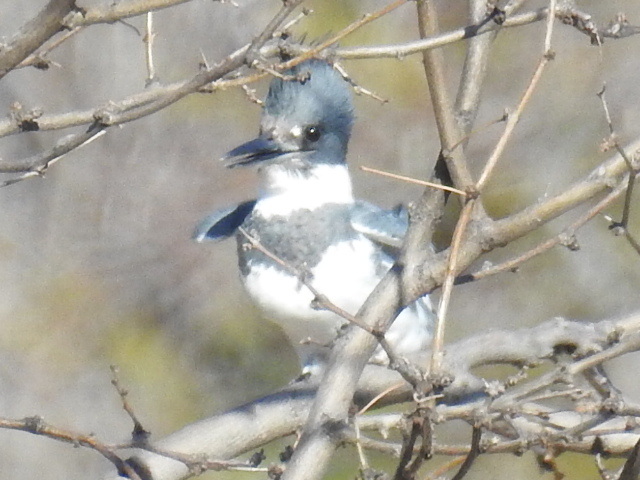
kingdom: Animalia
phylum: Chordata
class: Aves
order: Coraciiformes
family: Alcedinidae
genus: Megaceryle
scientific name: Megaceryle alcyon
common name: Belted kingfisher
